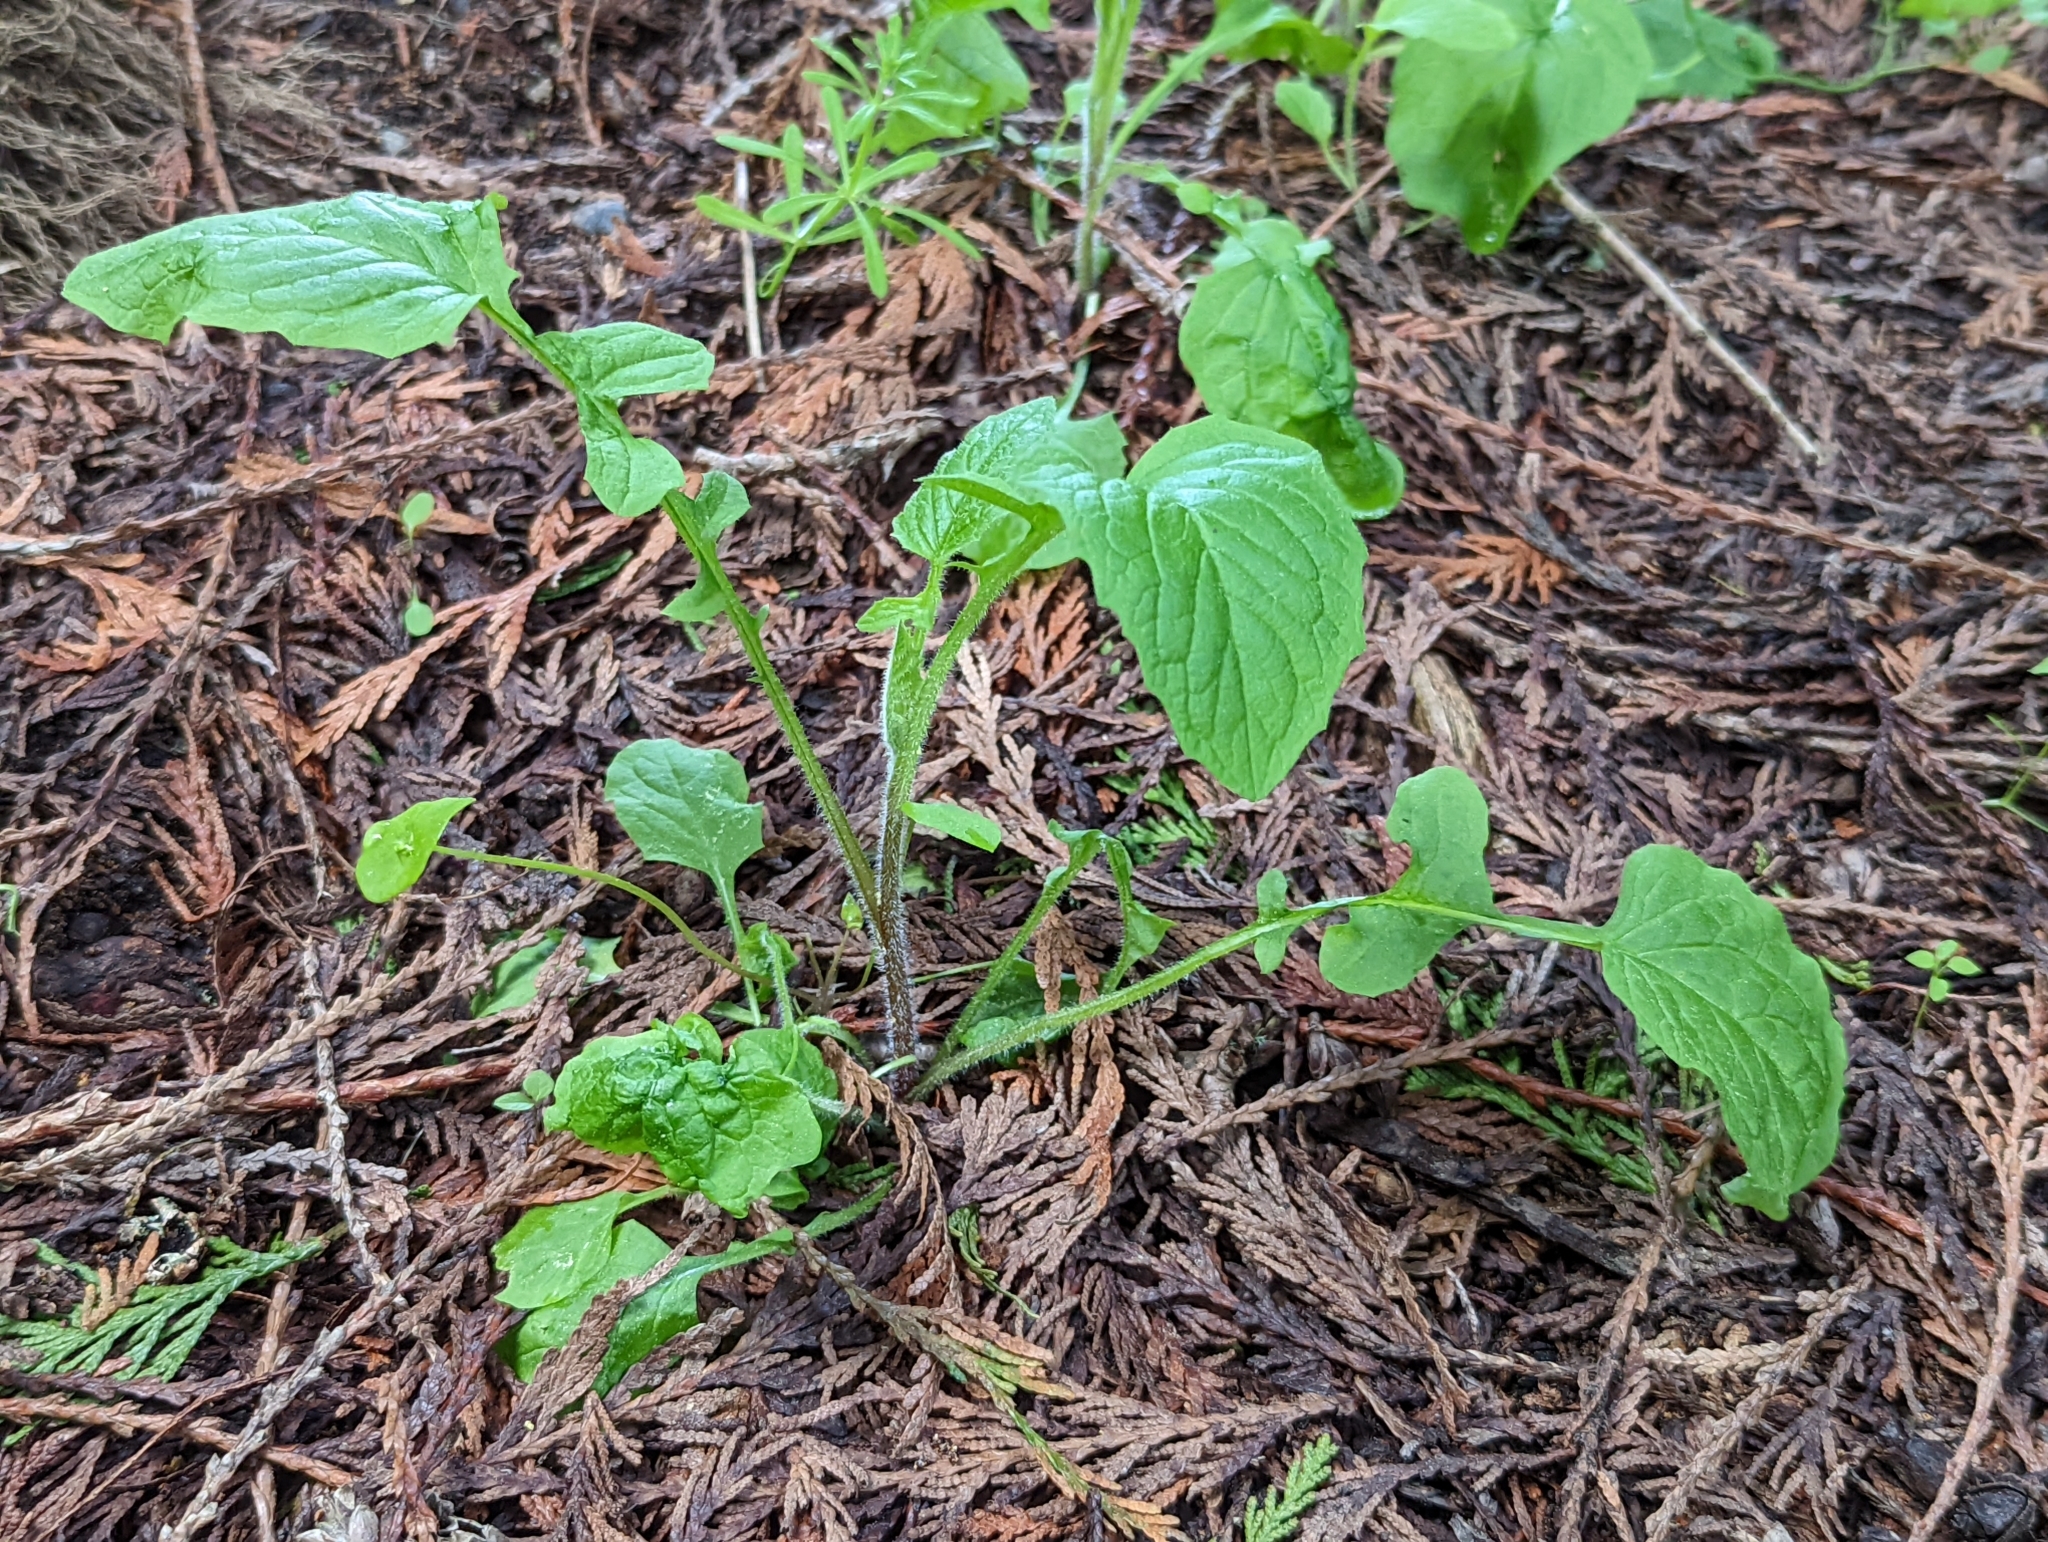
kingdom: Plantae
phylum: Tracheophyta
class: Magnoliopsida
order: Asterales
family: Asteraceae
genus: Lapsana
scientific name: Lapsana communis
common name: Nipplewort
